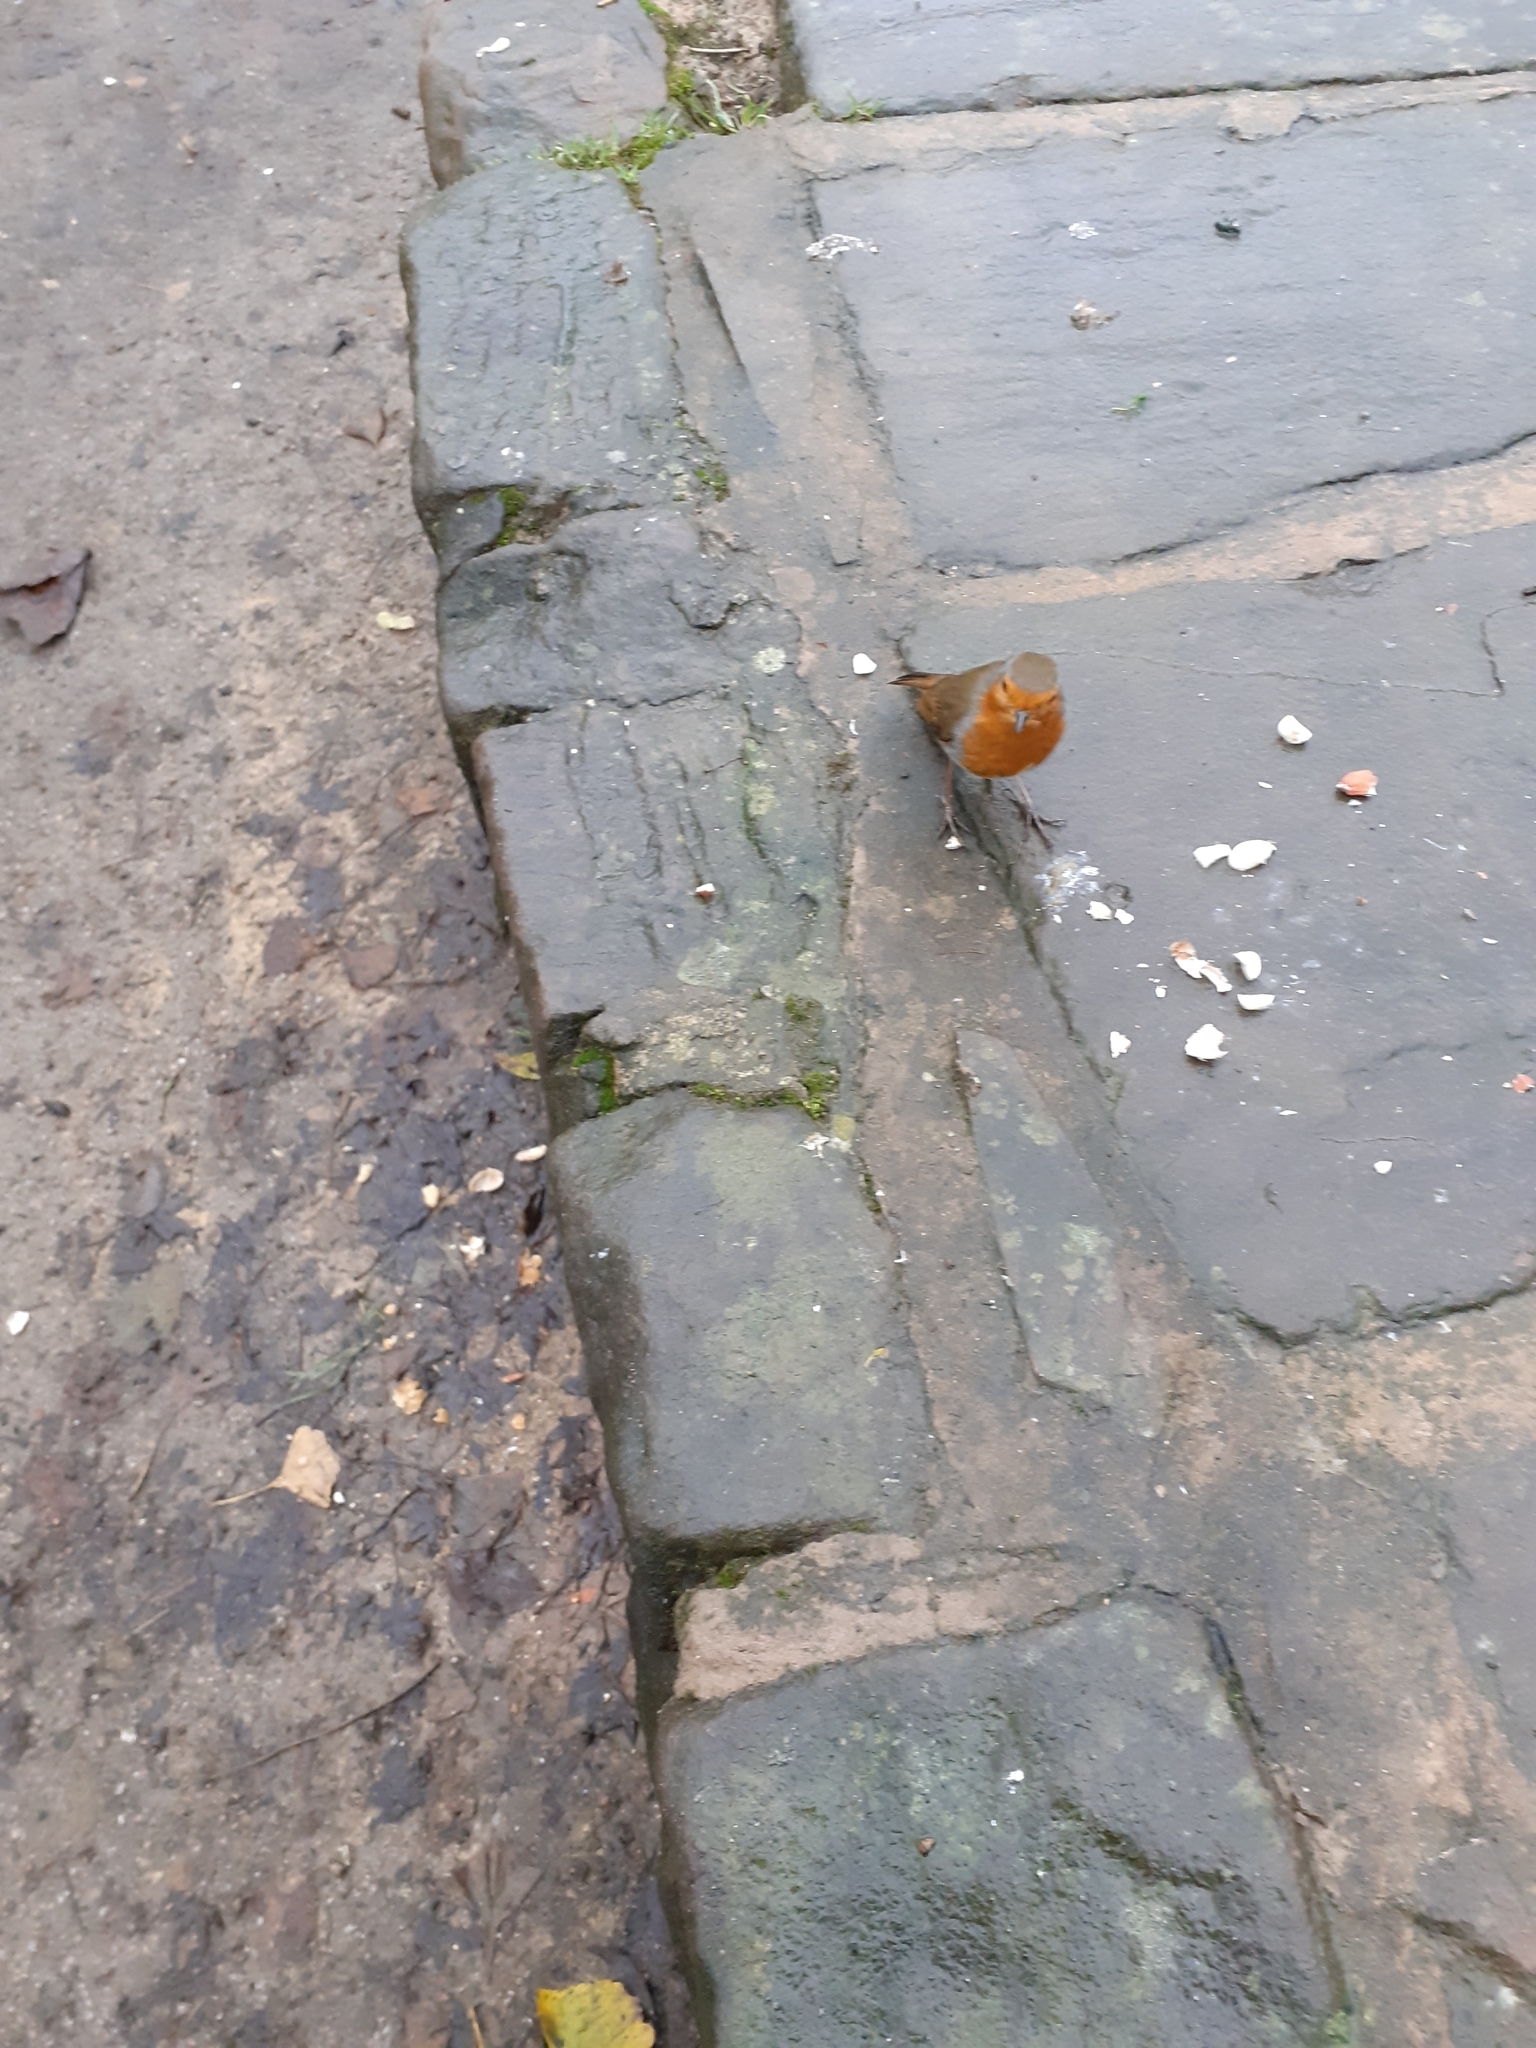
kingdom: Animalia
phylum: Chordata
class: Aves
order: Passeriformes
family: Muscicapidae
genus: Erithacus
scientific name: Erithacus rubecula
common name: European robin
